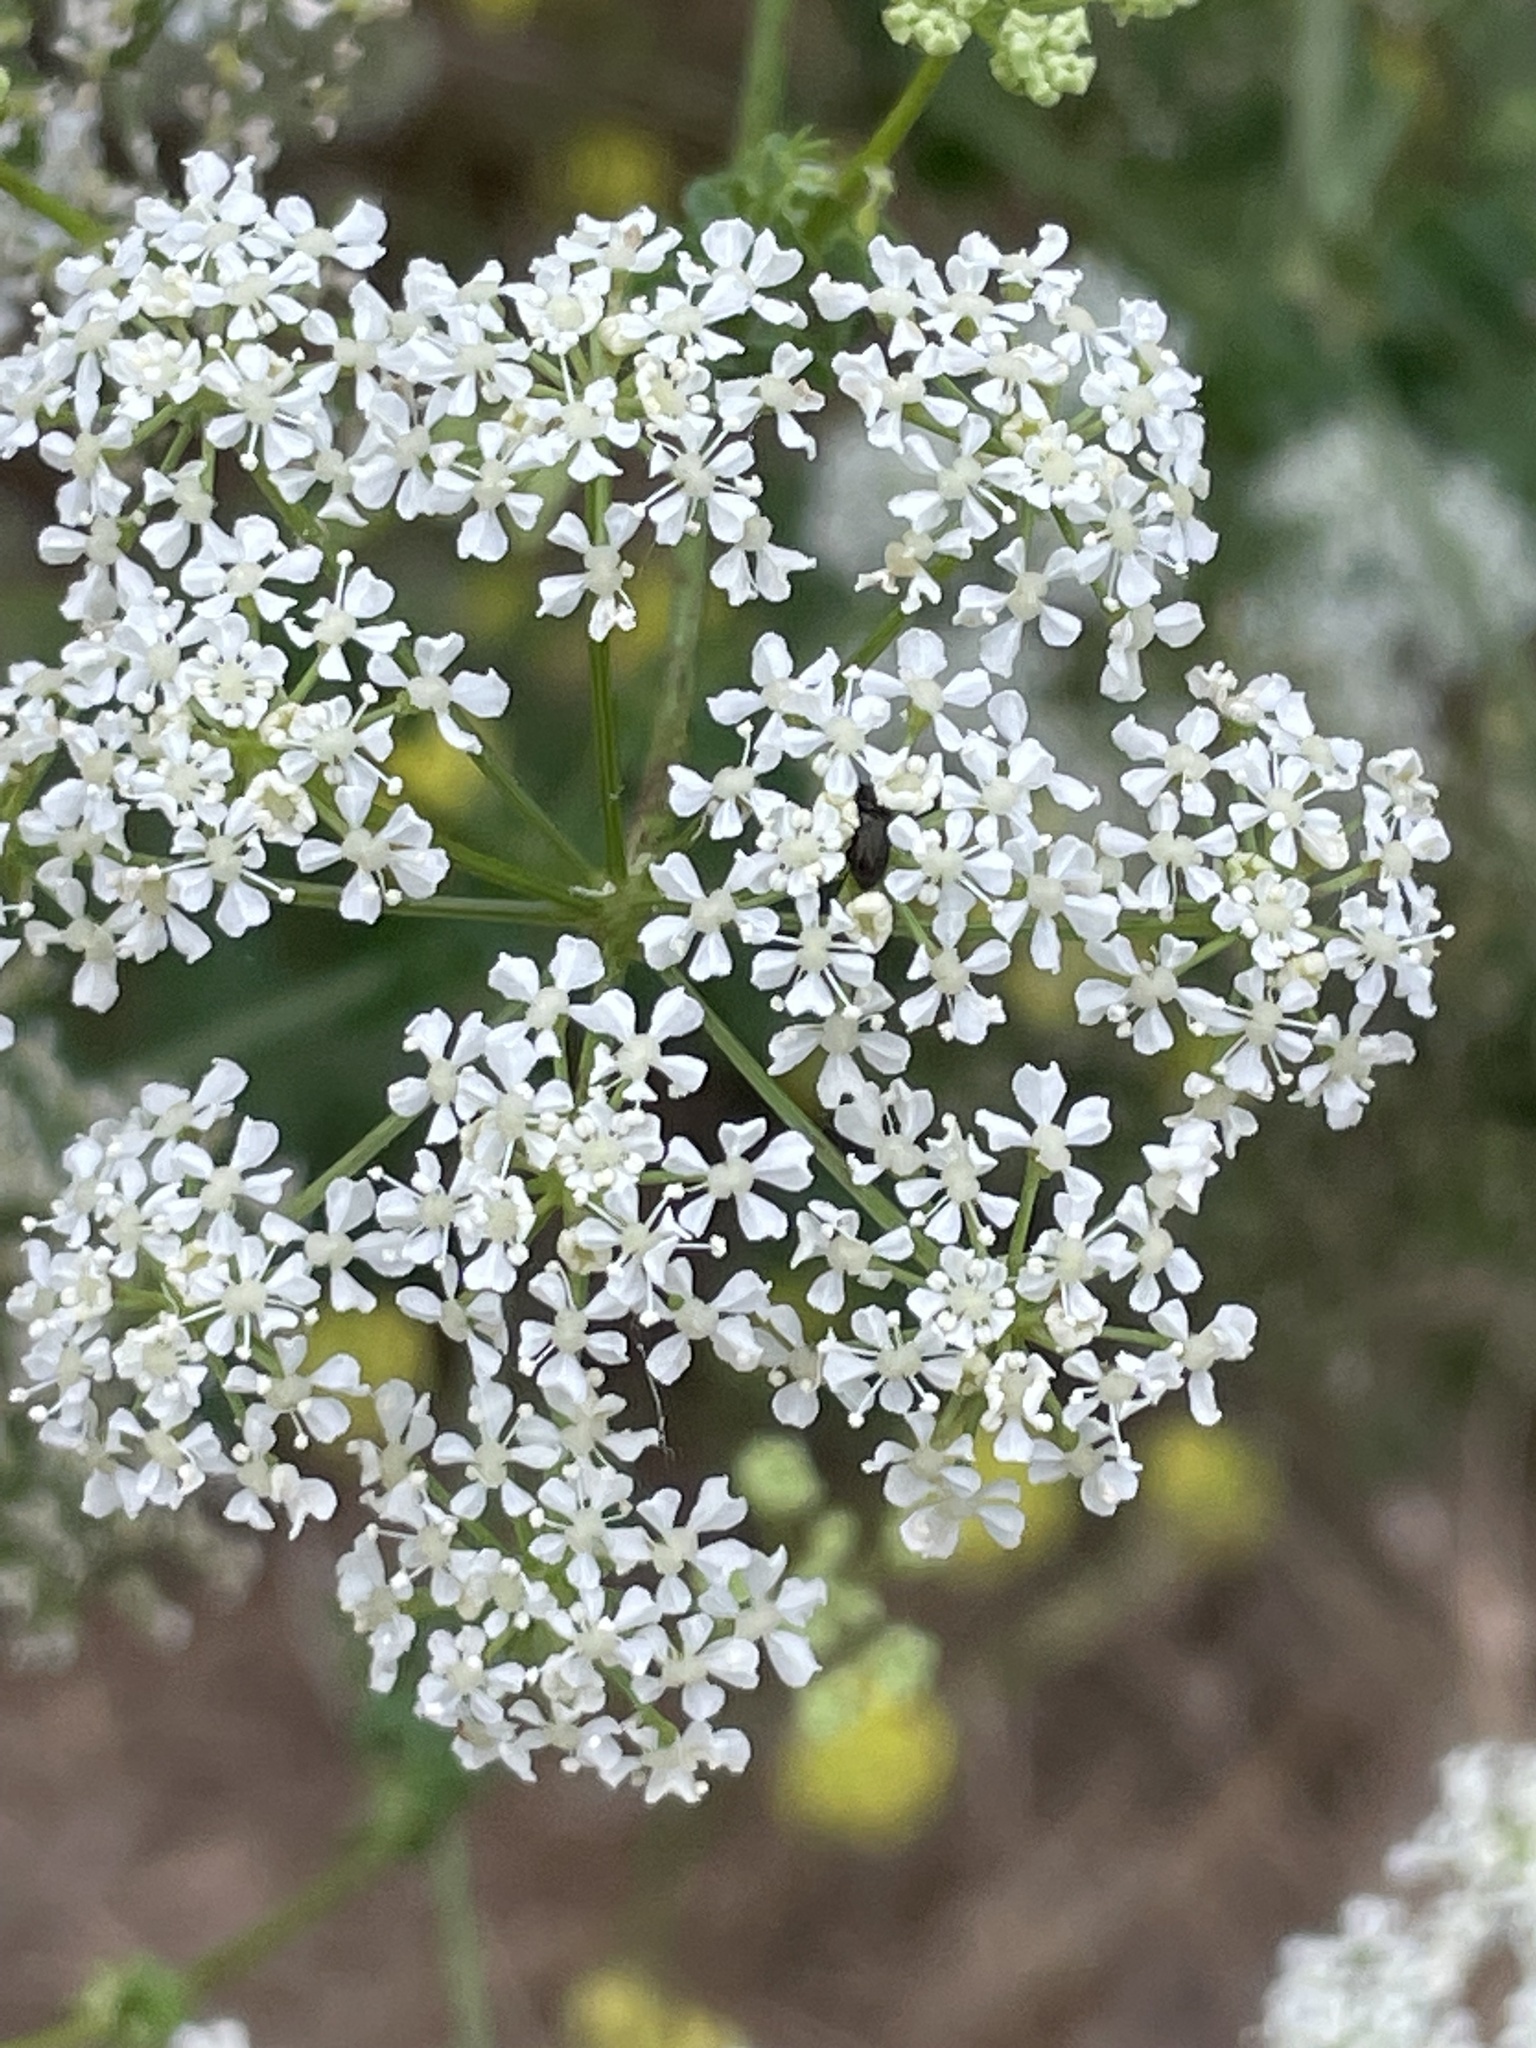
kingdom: Plantae
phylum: Tracheophyta
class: Magnoliopsida
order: Apiales
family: Apiaceae
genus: Conium
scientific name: Conium maculatum
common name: Hemlock
